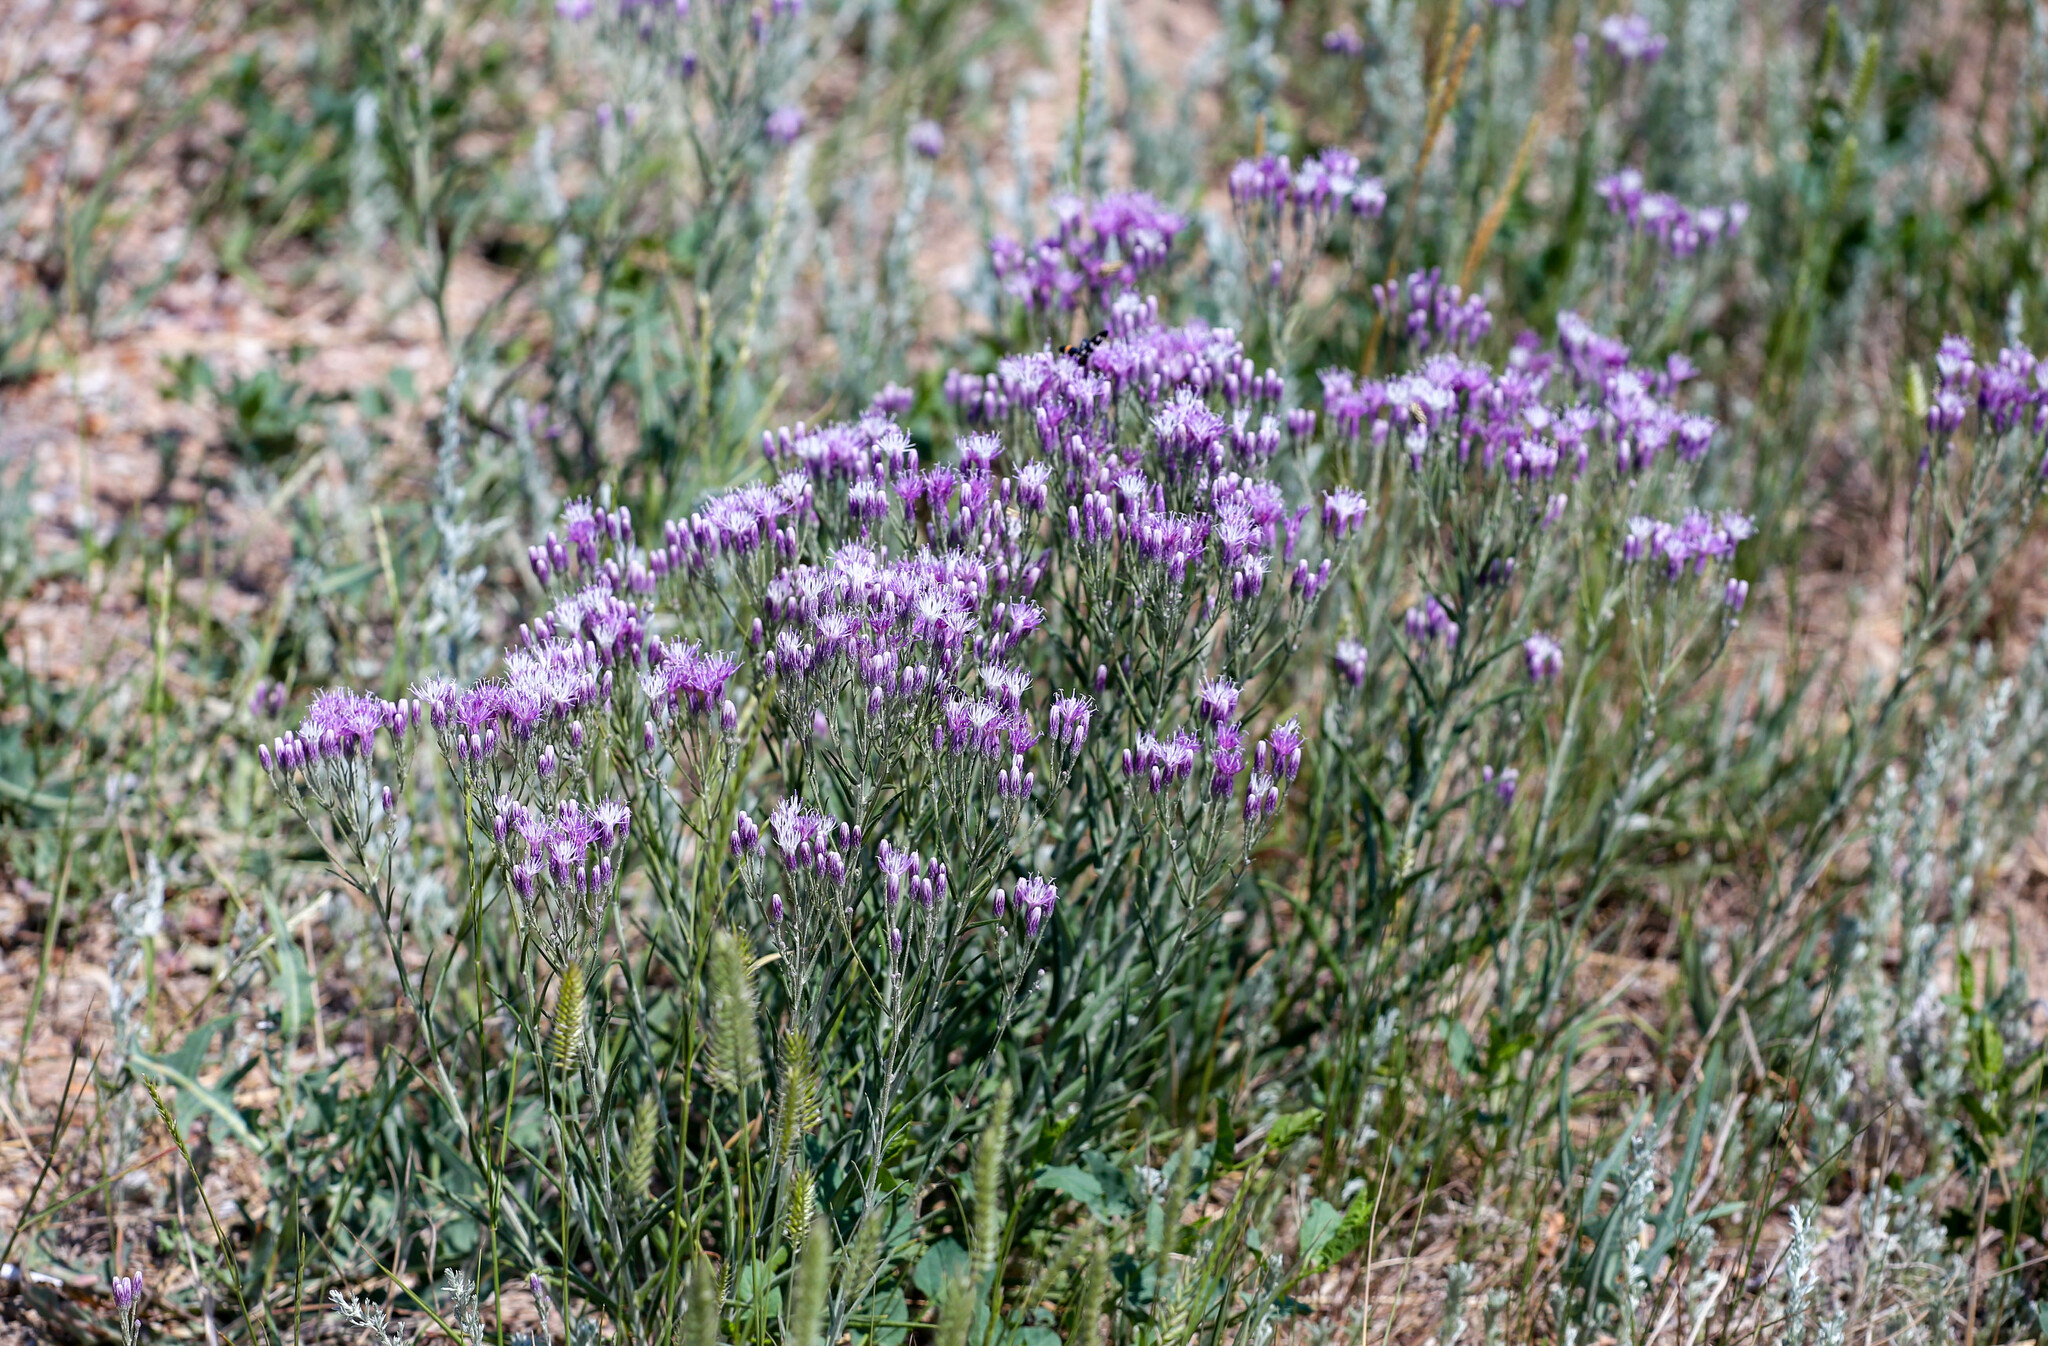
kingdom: Plantae
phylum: Tracheophyta
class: Magnoliopsida
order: Asterales
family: Asteraceae
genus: Jurinea
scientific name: Jurinea multiflora
